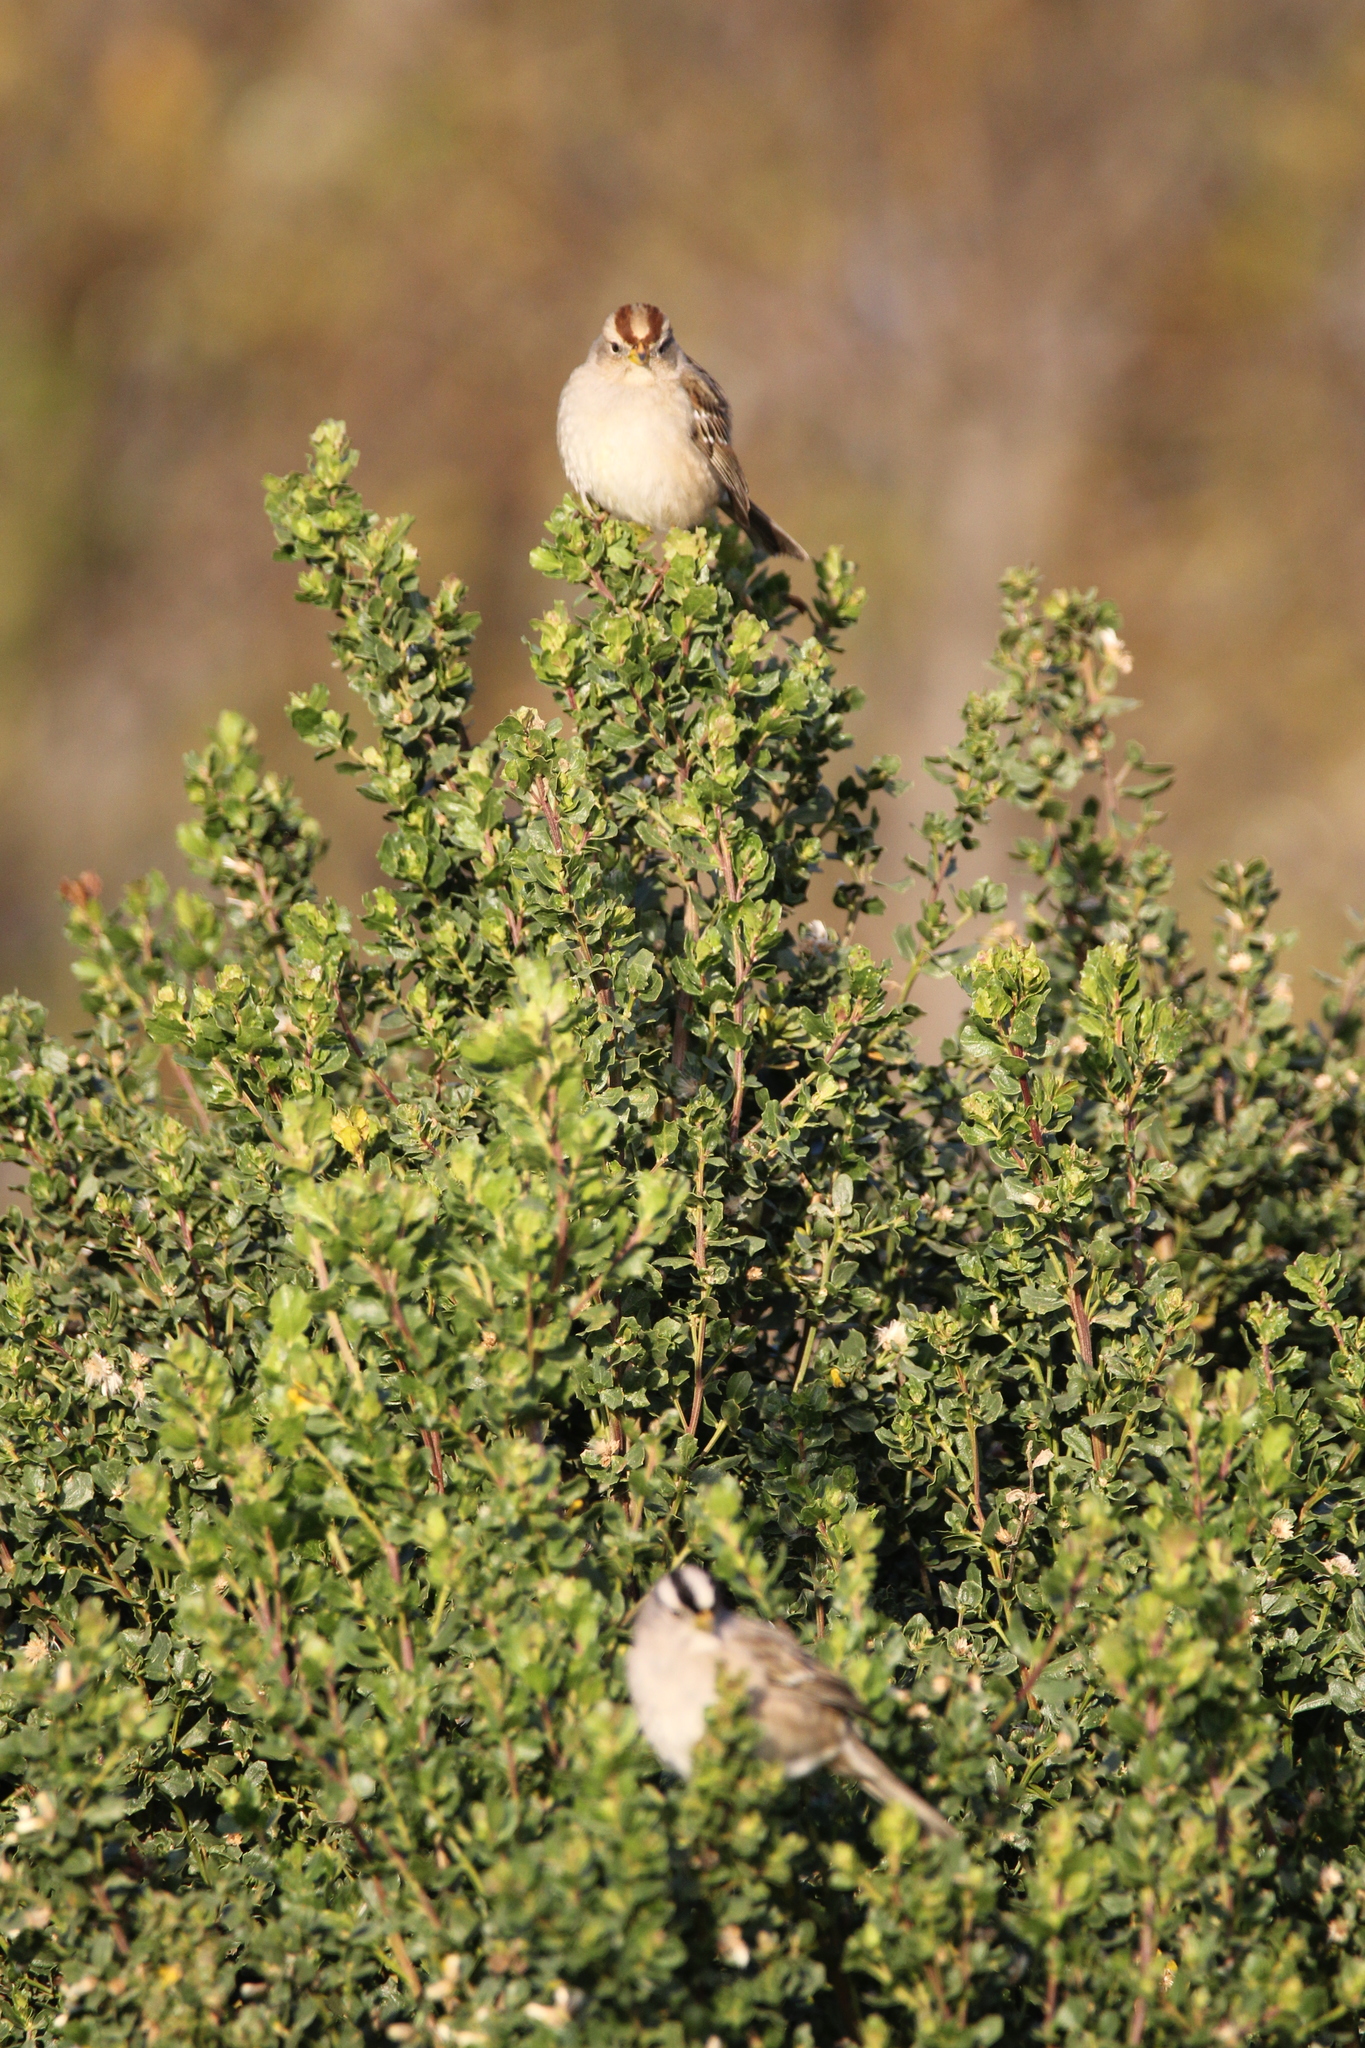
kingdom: Animalia
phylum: Chordata
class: Aves
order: Passeriformes
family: Passerellidae
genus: Zonotrichia
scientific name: Zonotrichia leucophrys
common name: White-crowned sparrow
